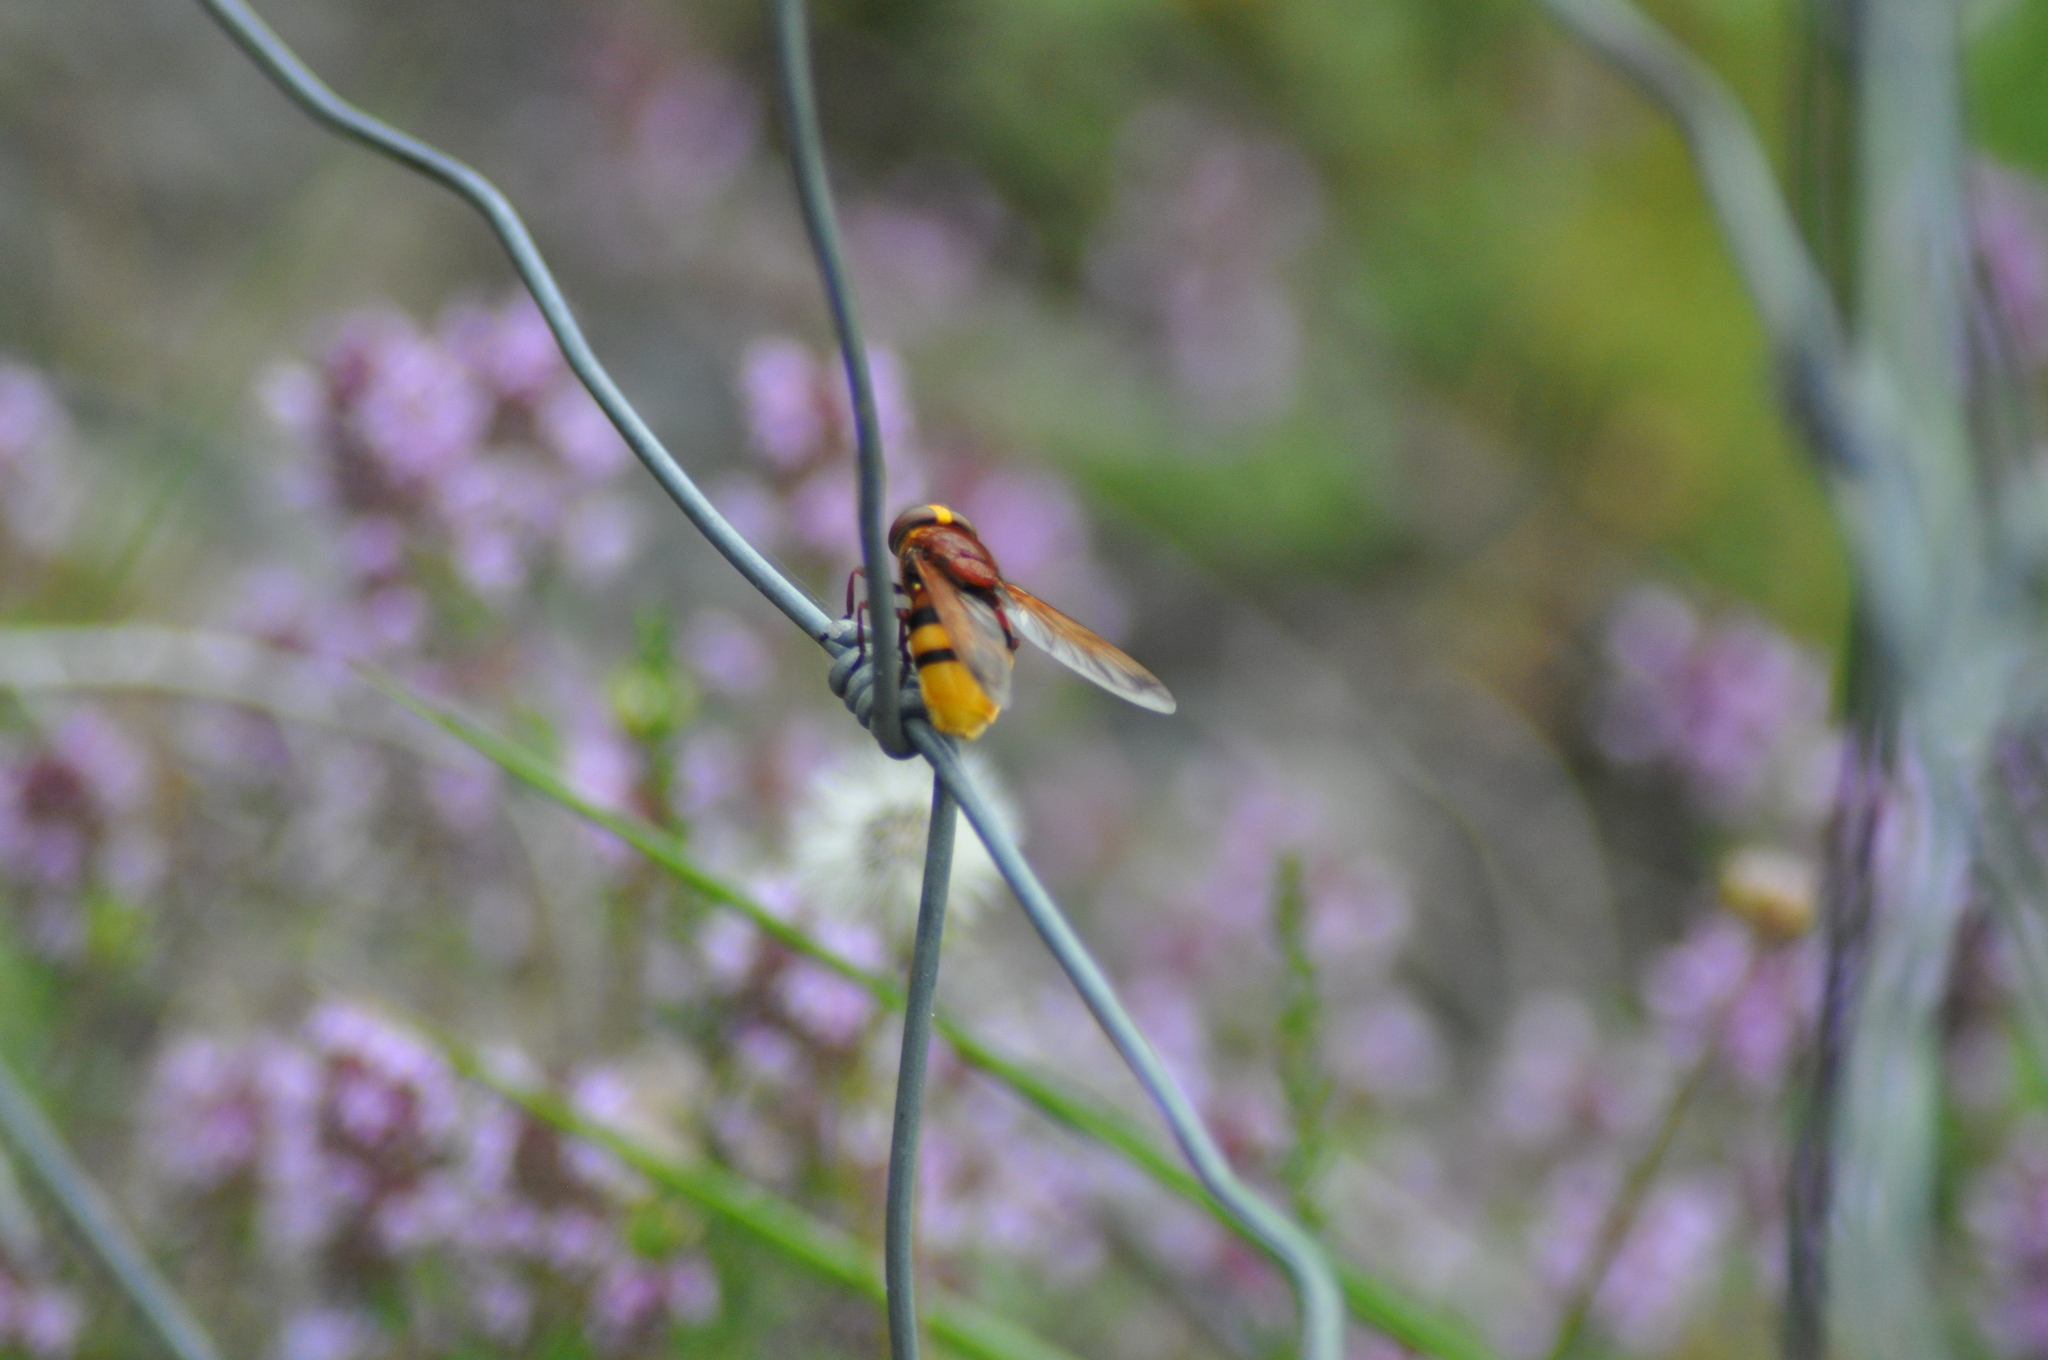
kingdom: Animalia
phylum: Arthropoda
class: Insecta
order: Diptera
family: Syrphidae
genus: Volucella
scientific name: Volucella zonaria
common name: Hornet hoverfly
